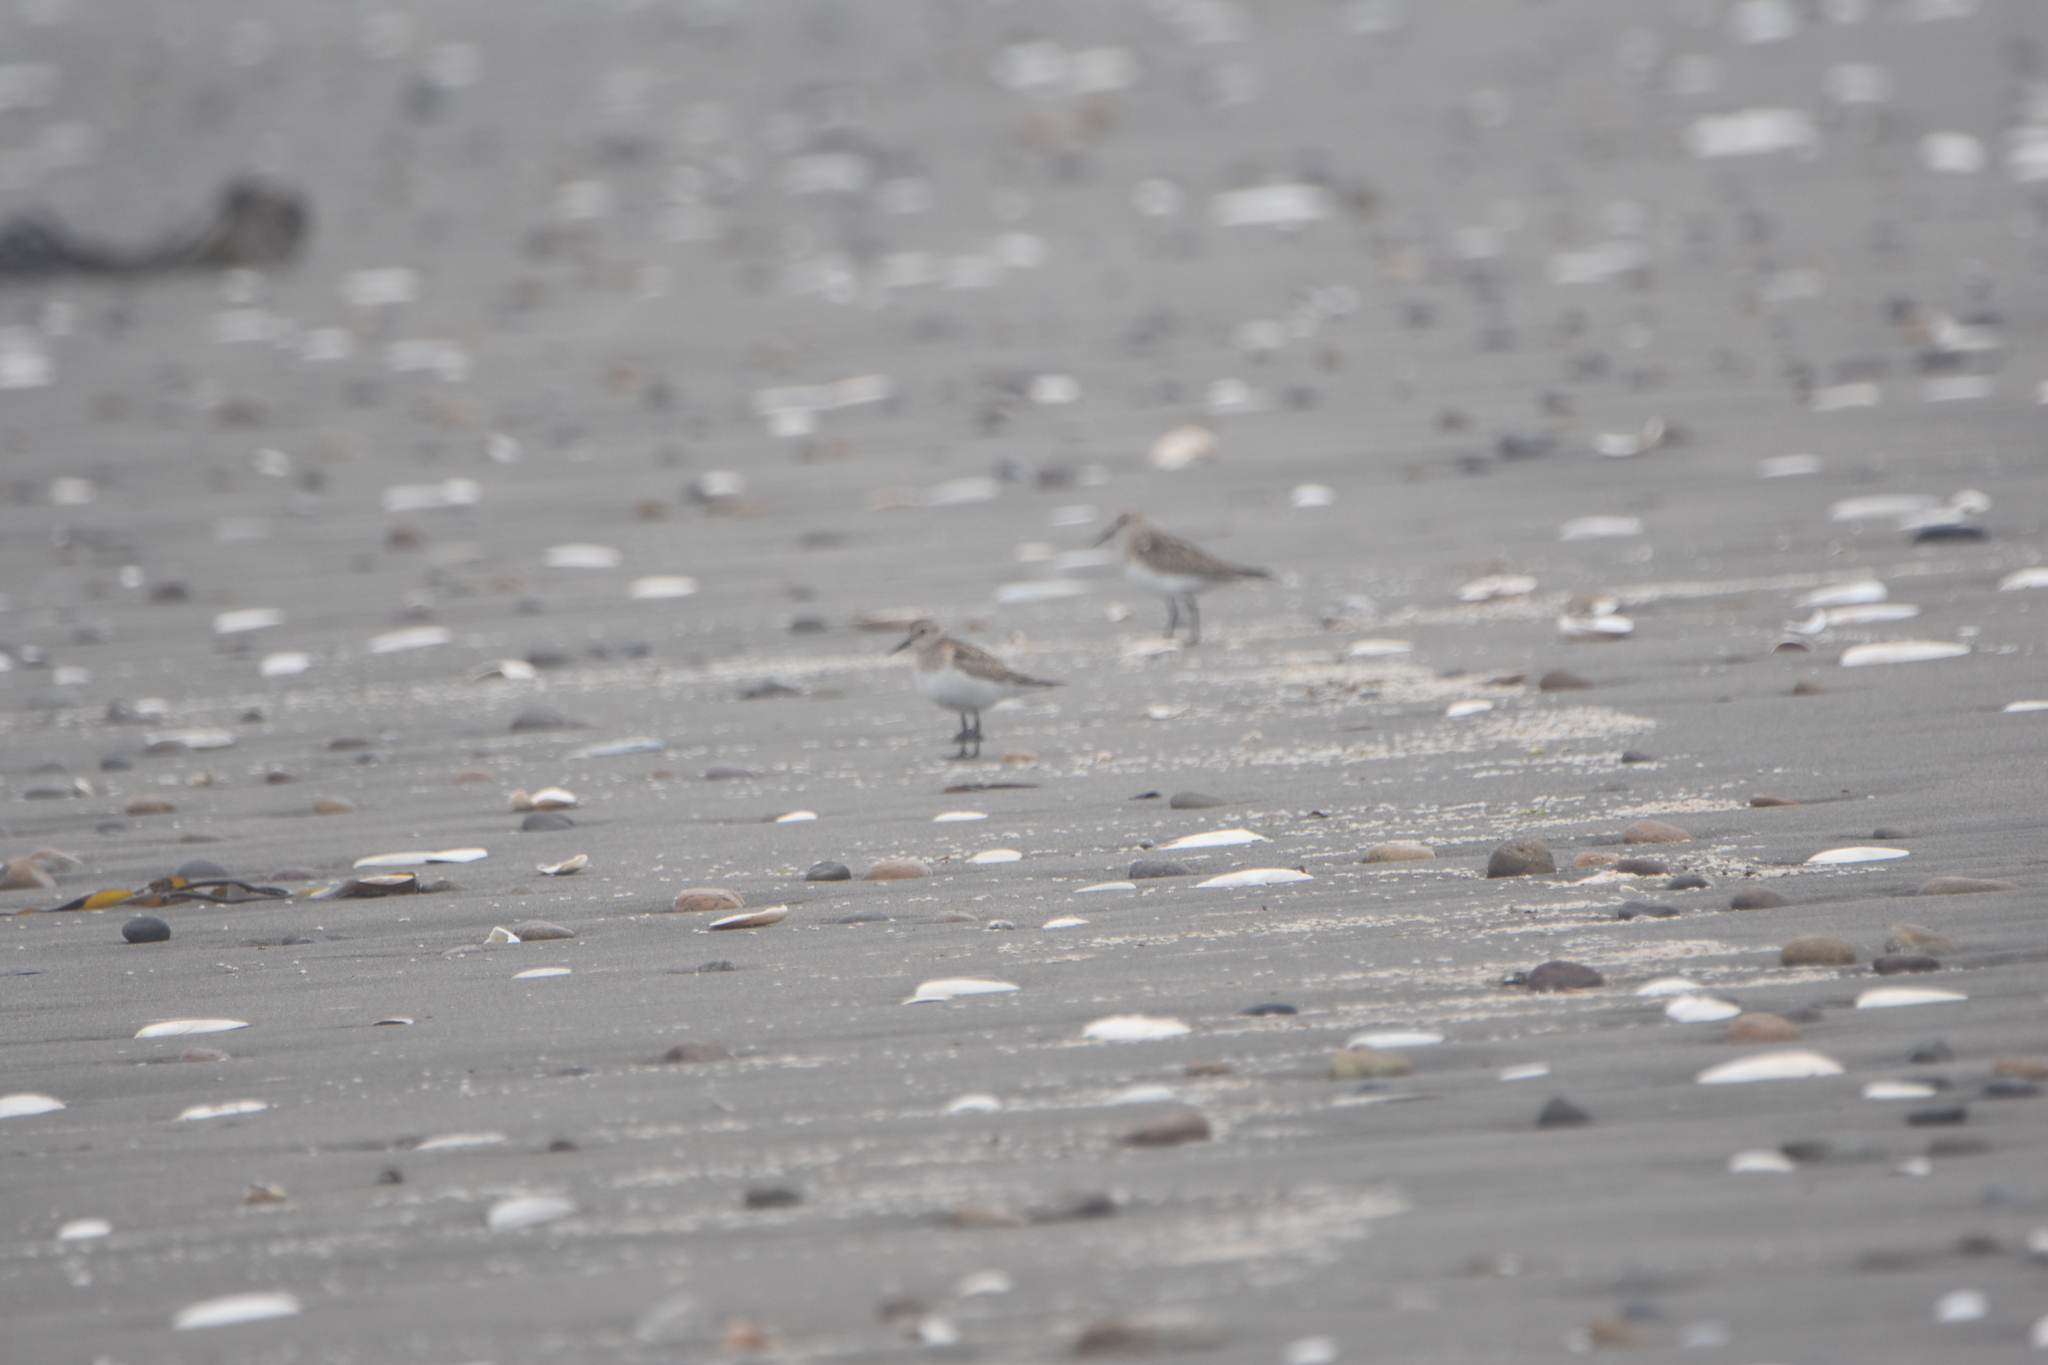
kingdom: Animalia
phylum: Chordata
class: Aves
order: Charadriiformes
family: Scolopacidae
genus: Calidris
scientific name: Calidris bairdii
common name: Baird's sandpiper
